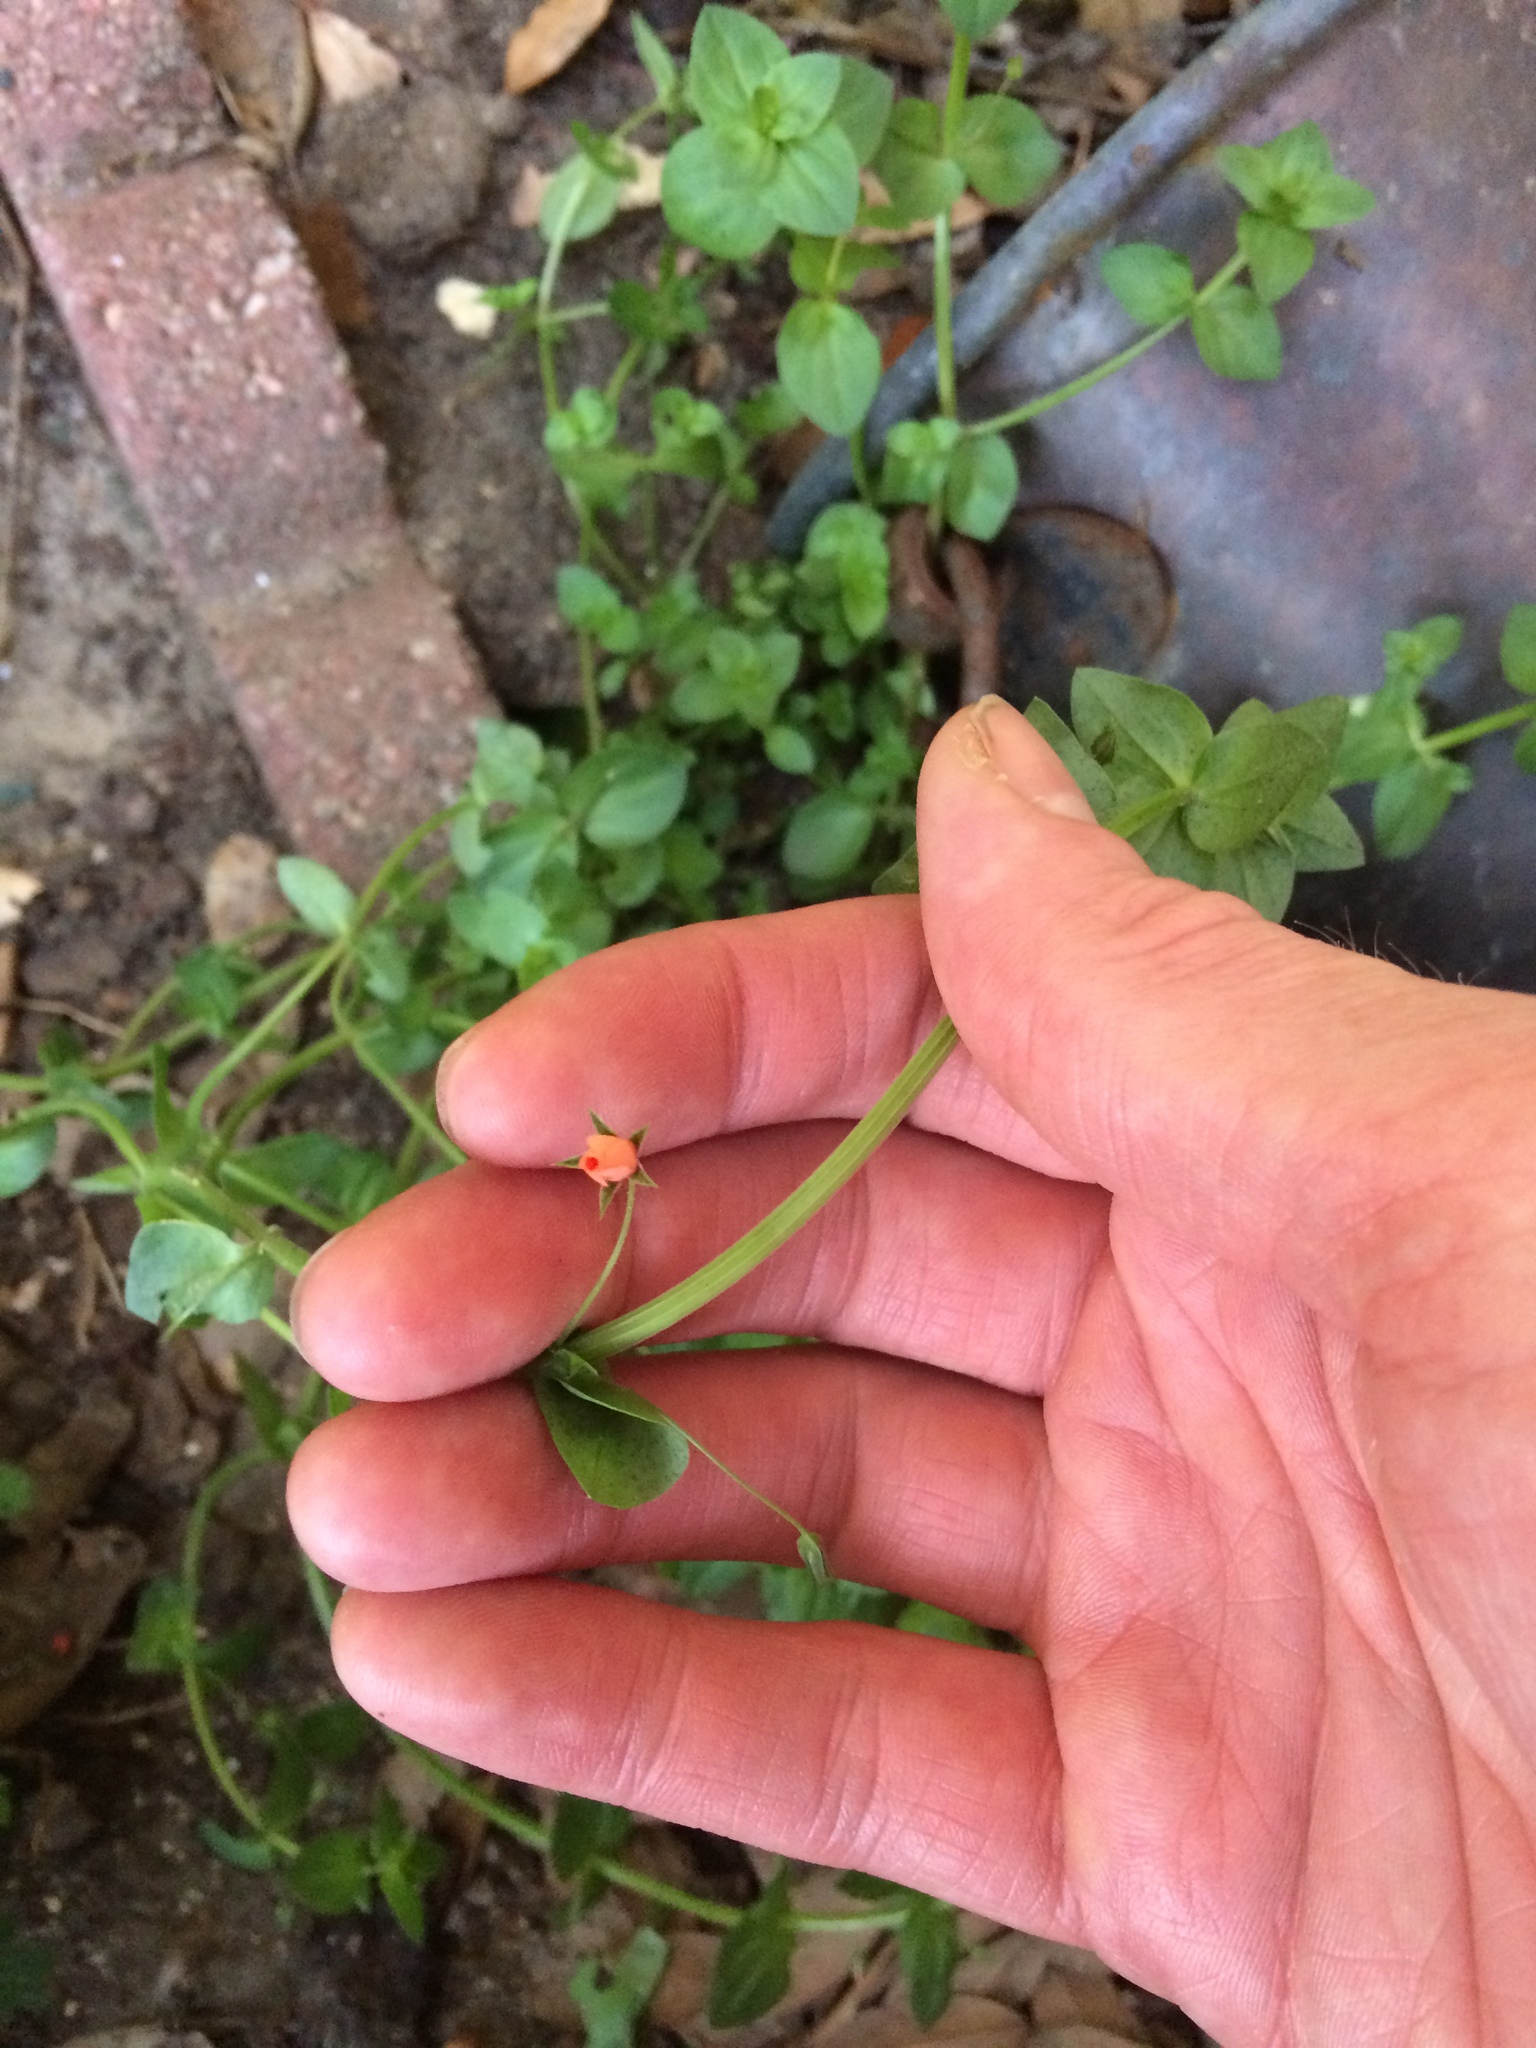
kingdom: Plantae
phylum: Tracheophyta
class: Magnoliopsida
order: Ericales
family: Primulaceae
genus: Lysimachia
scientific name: Lysimachia arvensis
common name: Scarlet pimpernel
